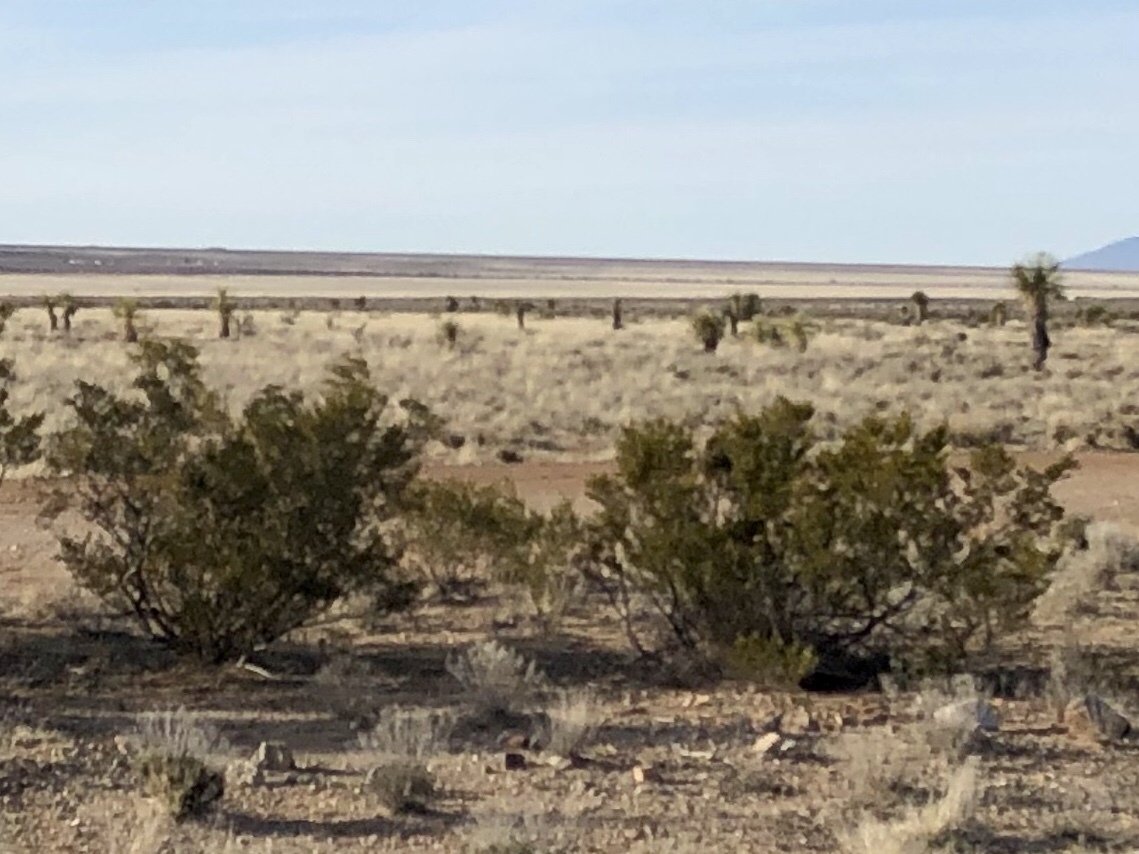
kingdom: Plantae
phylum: Tracheophyta
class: Magnoliopsida
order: Zygophyllales
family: Zygophyllaceae
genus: Larrea
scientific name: Larrea tridentata
